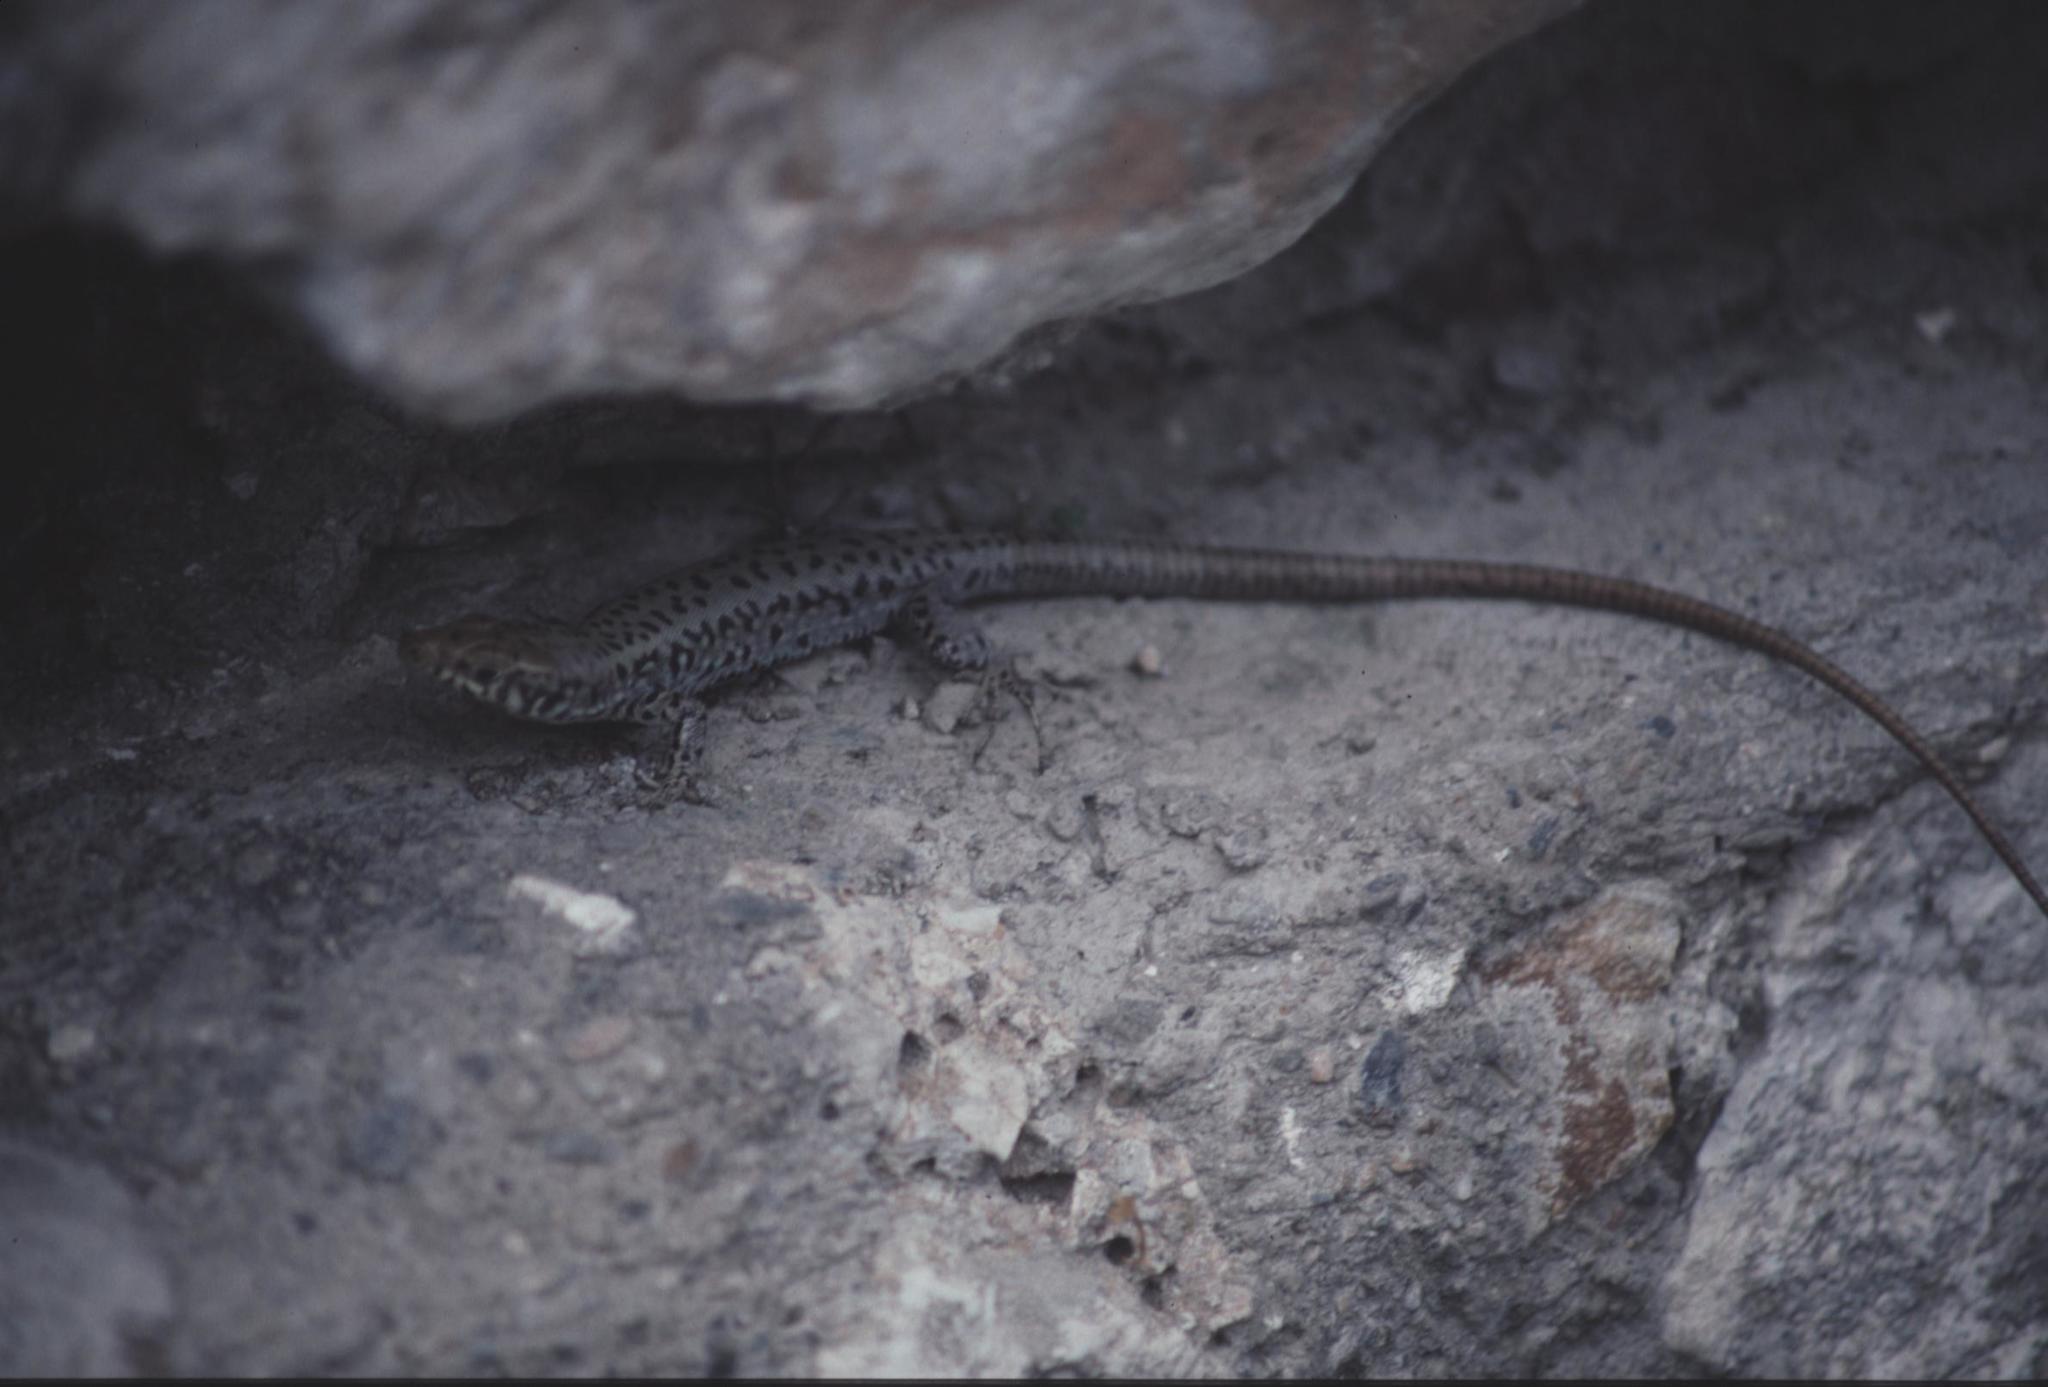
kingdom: Animalia
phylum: Chordata
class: Squamata
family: Lacertidae
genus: Hellenolacerta
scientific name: Hellenolacerta graeca
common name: Greek rock lizard
